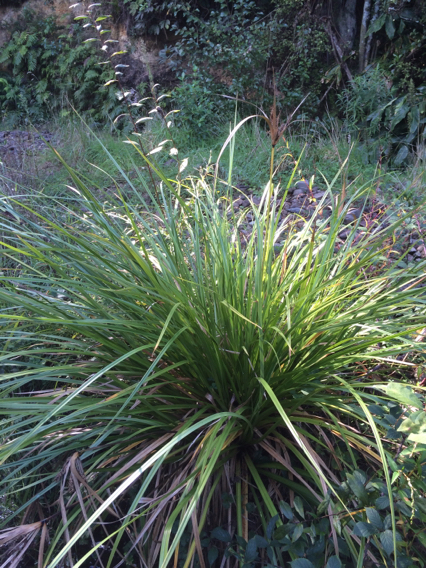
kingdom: Plantae
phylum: Tracheophyta
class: Liliopsida
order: Poales
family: Cyperaceae
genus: Cyperus
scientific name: Cyperus ustulatus
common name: Giant umbrella-sedge
